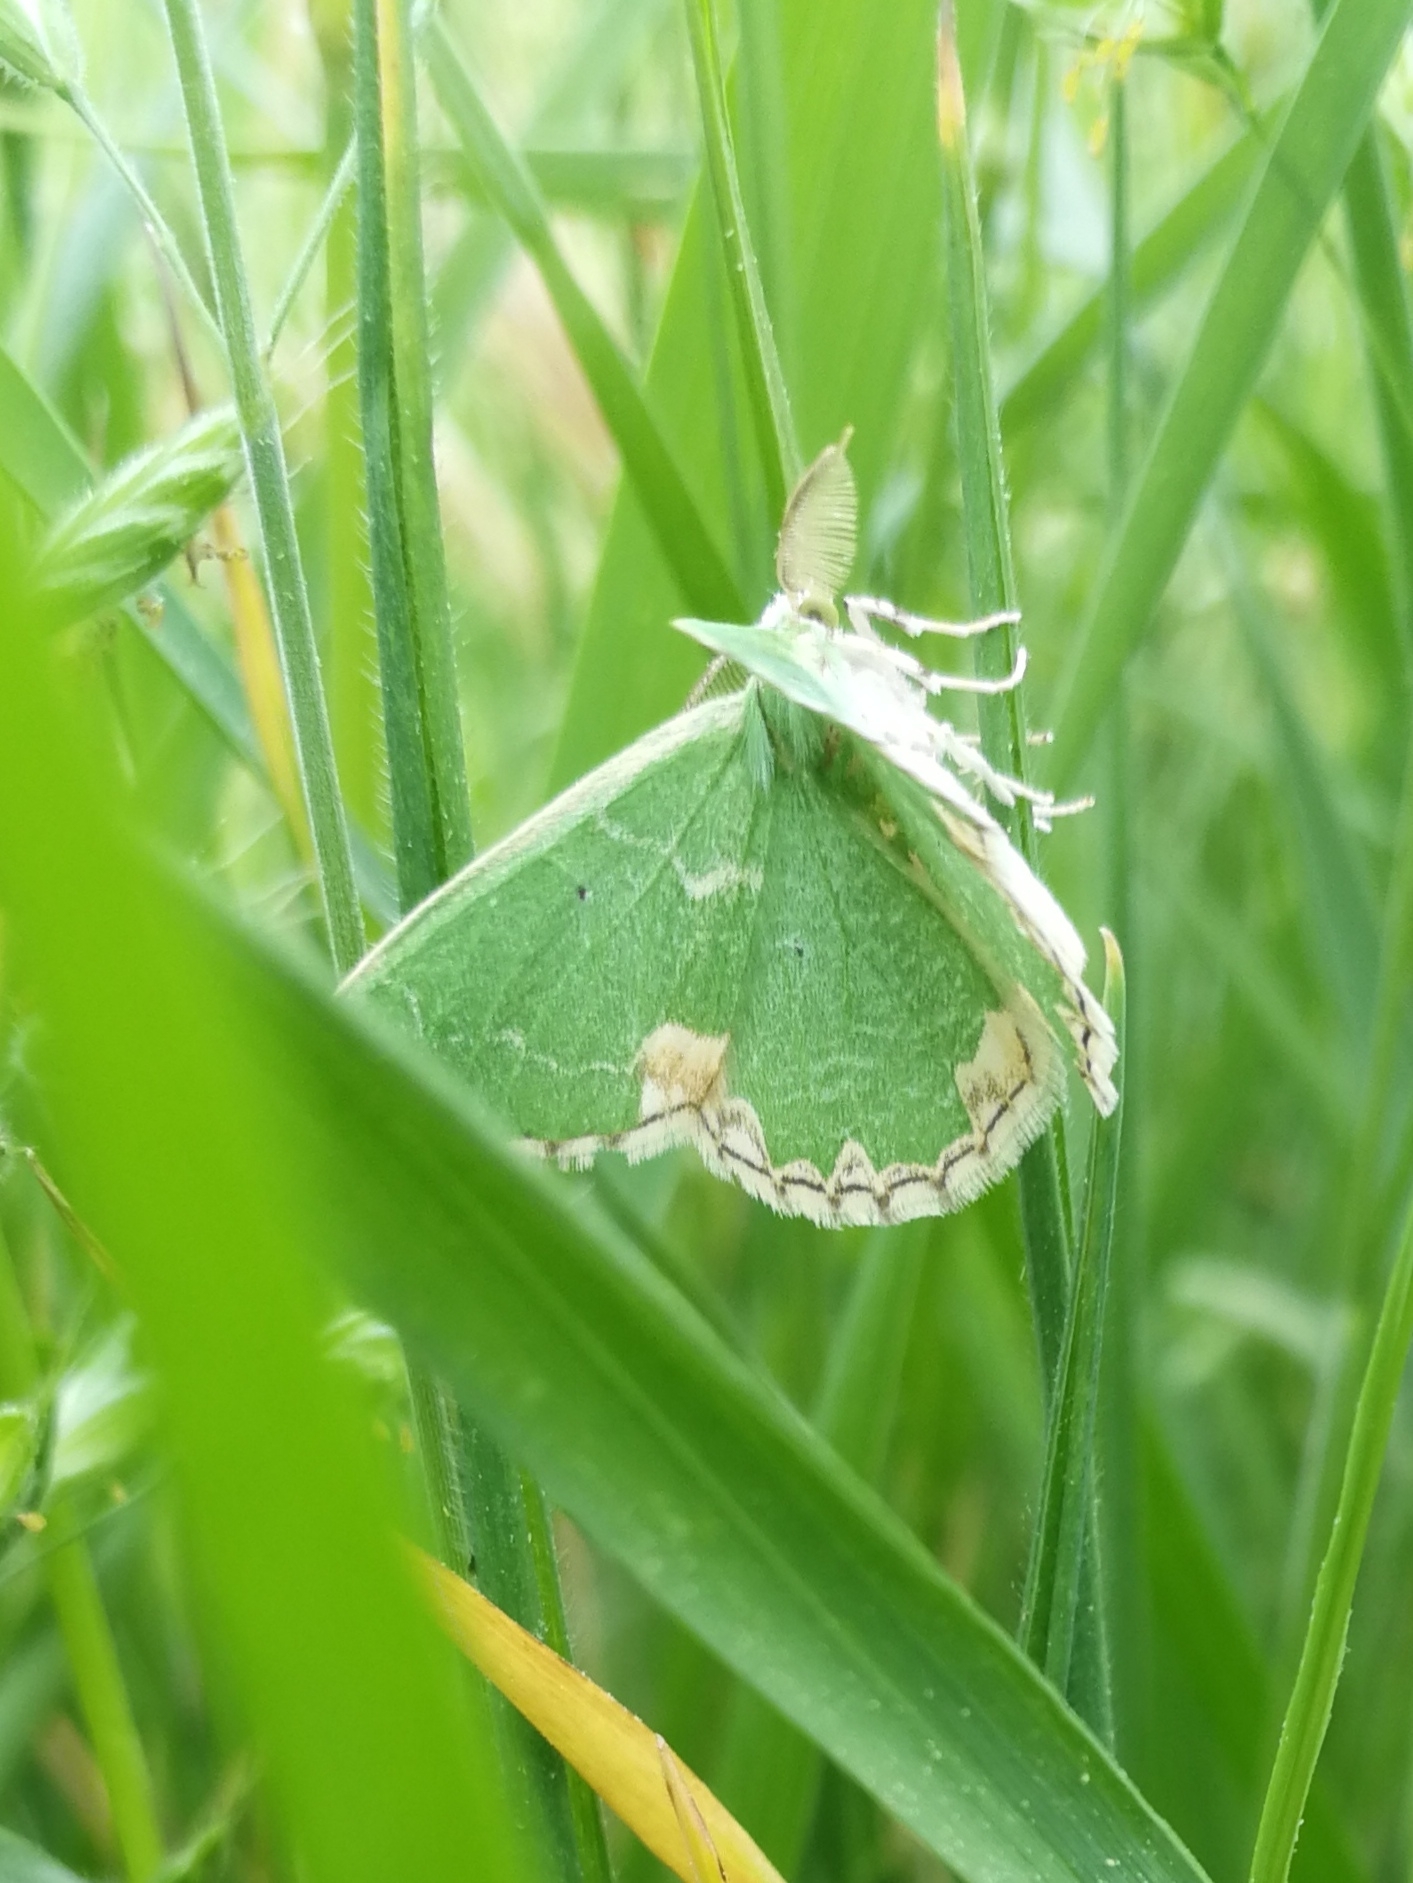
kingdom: Animalia
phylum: Arthropoda
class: Insecta
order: Lepidoptera
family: Geometridae
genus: Comibaena
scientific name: Comibaena bajularia
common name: Blotched emerald
